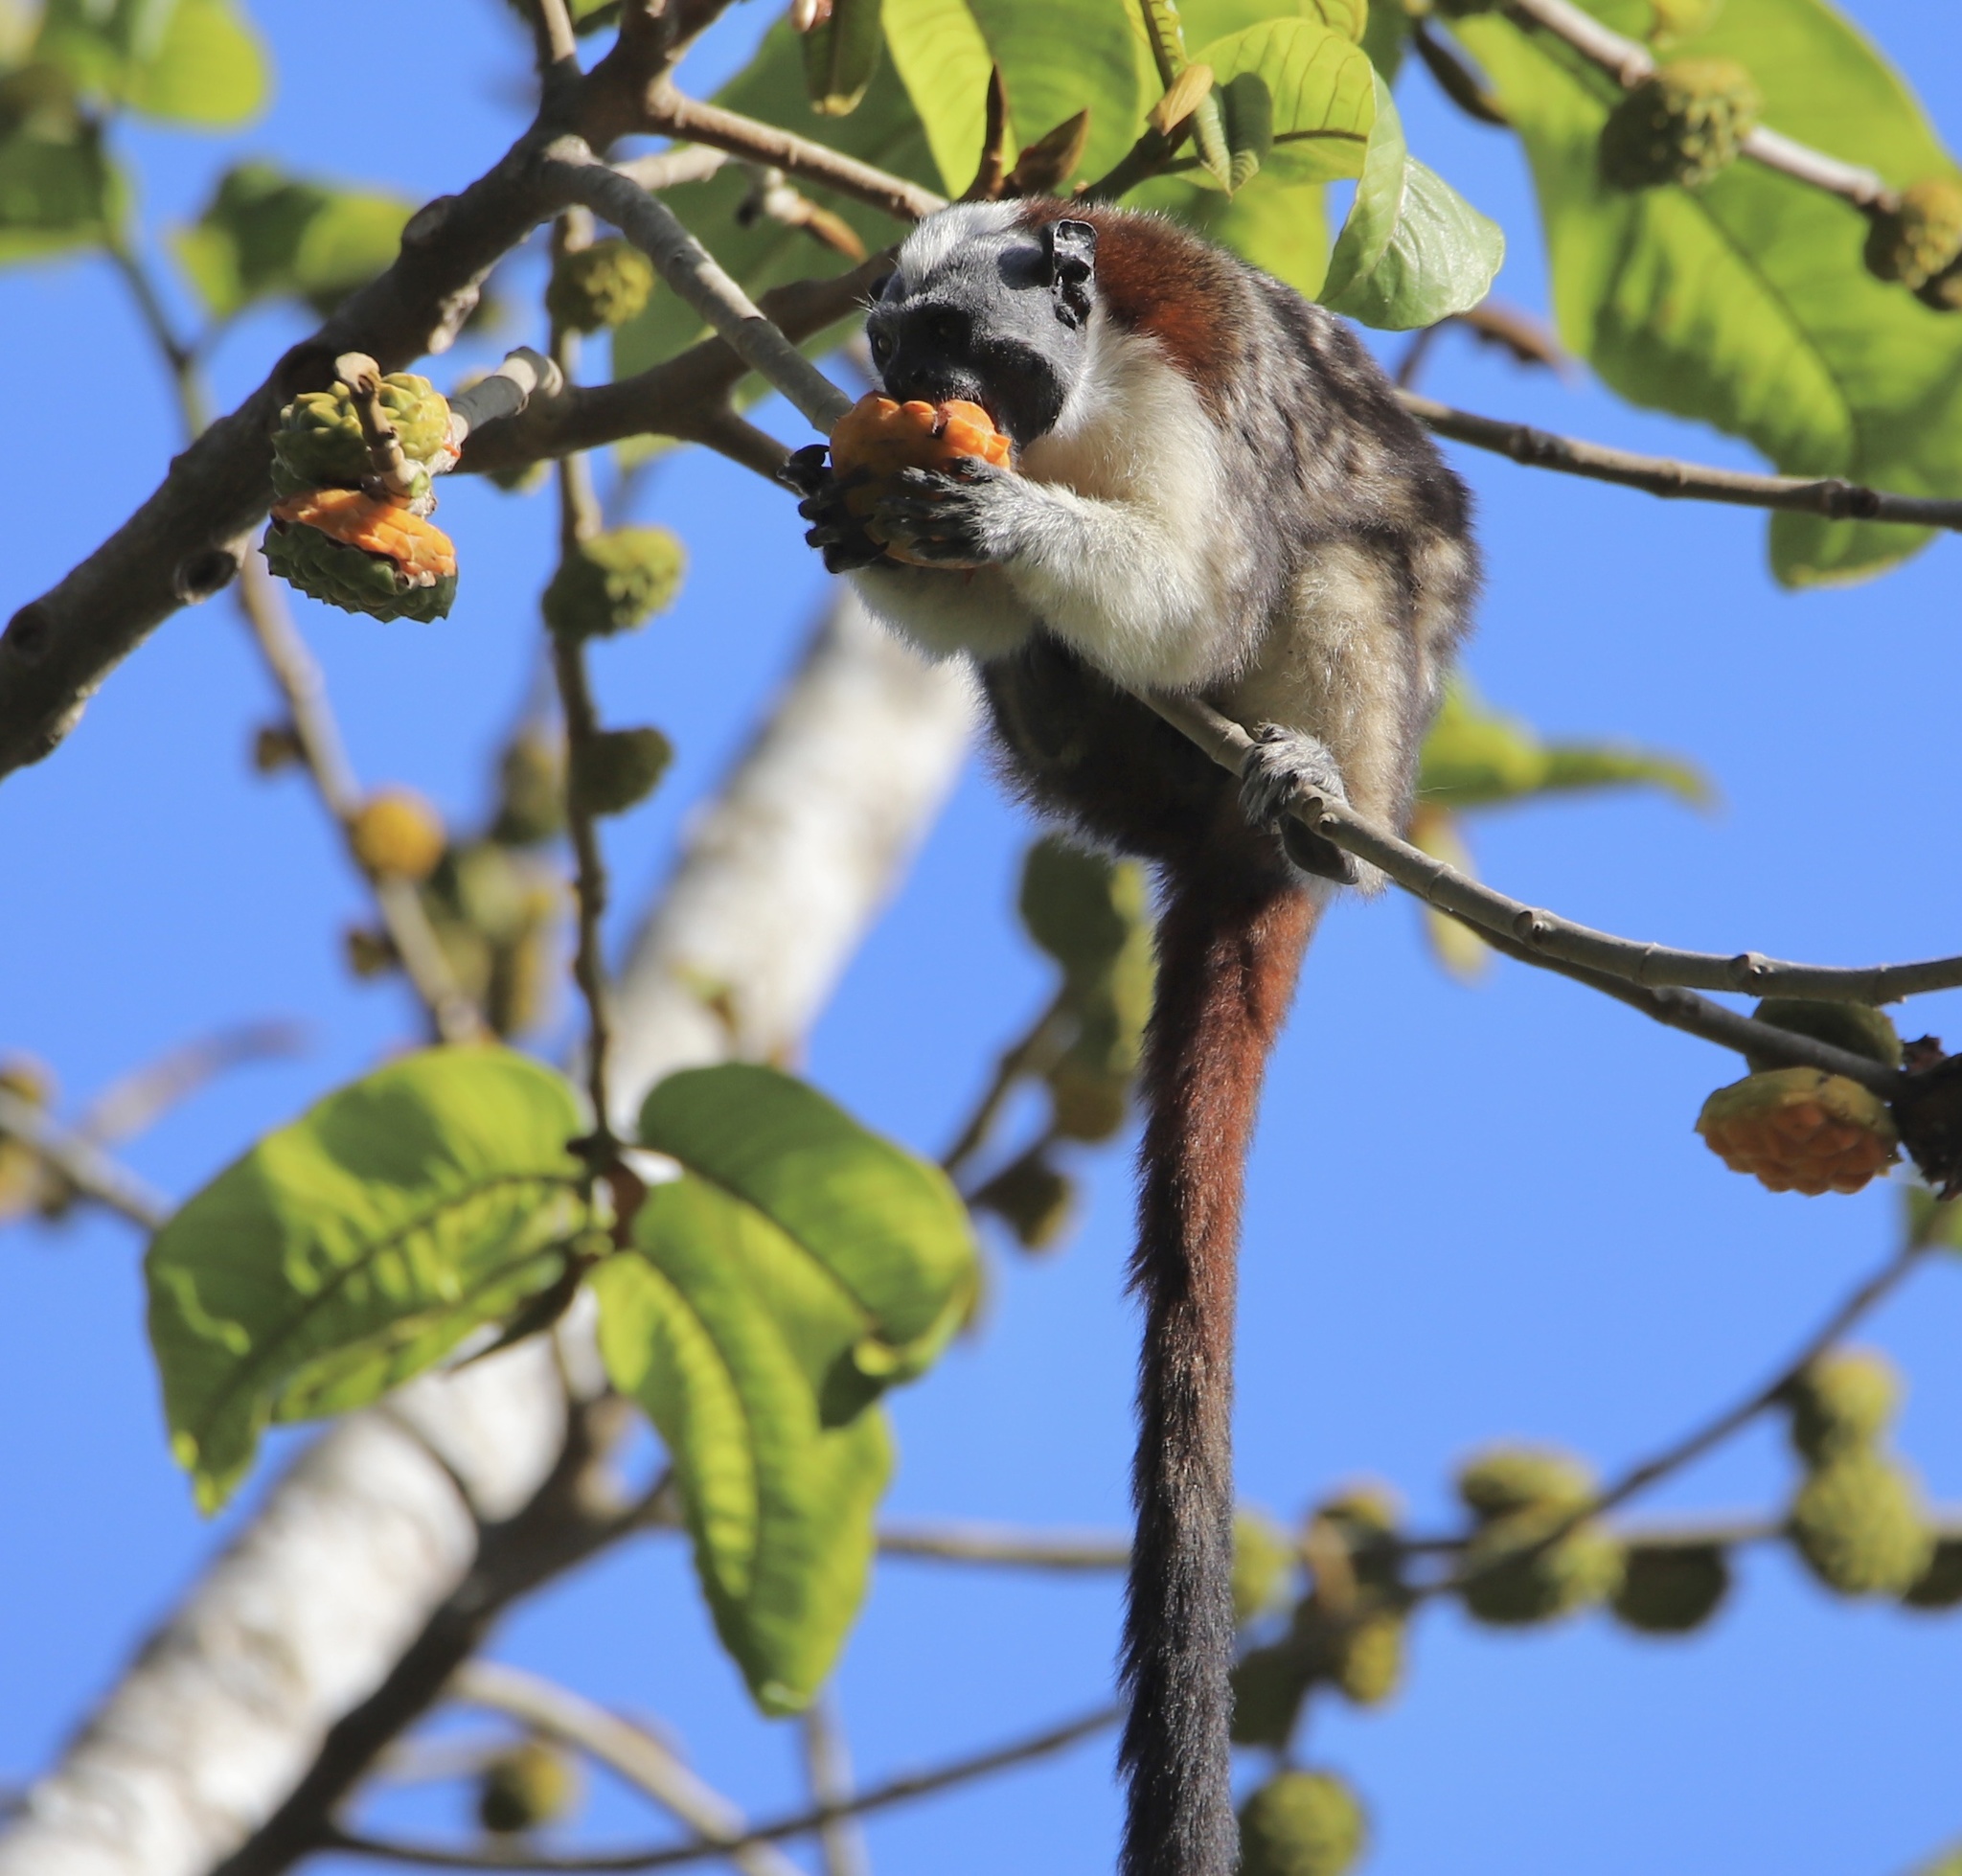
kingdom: Animalia
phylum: Chordata
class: Mammalia
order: Primates
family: Callitrichidae
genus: Saguinus
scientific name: Saguinus geoffroyi
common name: Geoffroy s tamarin
